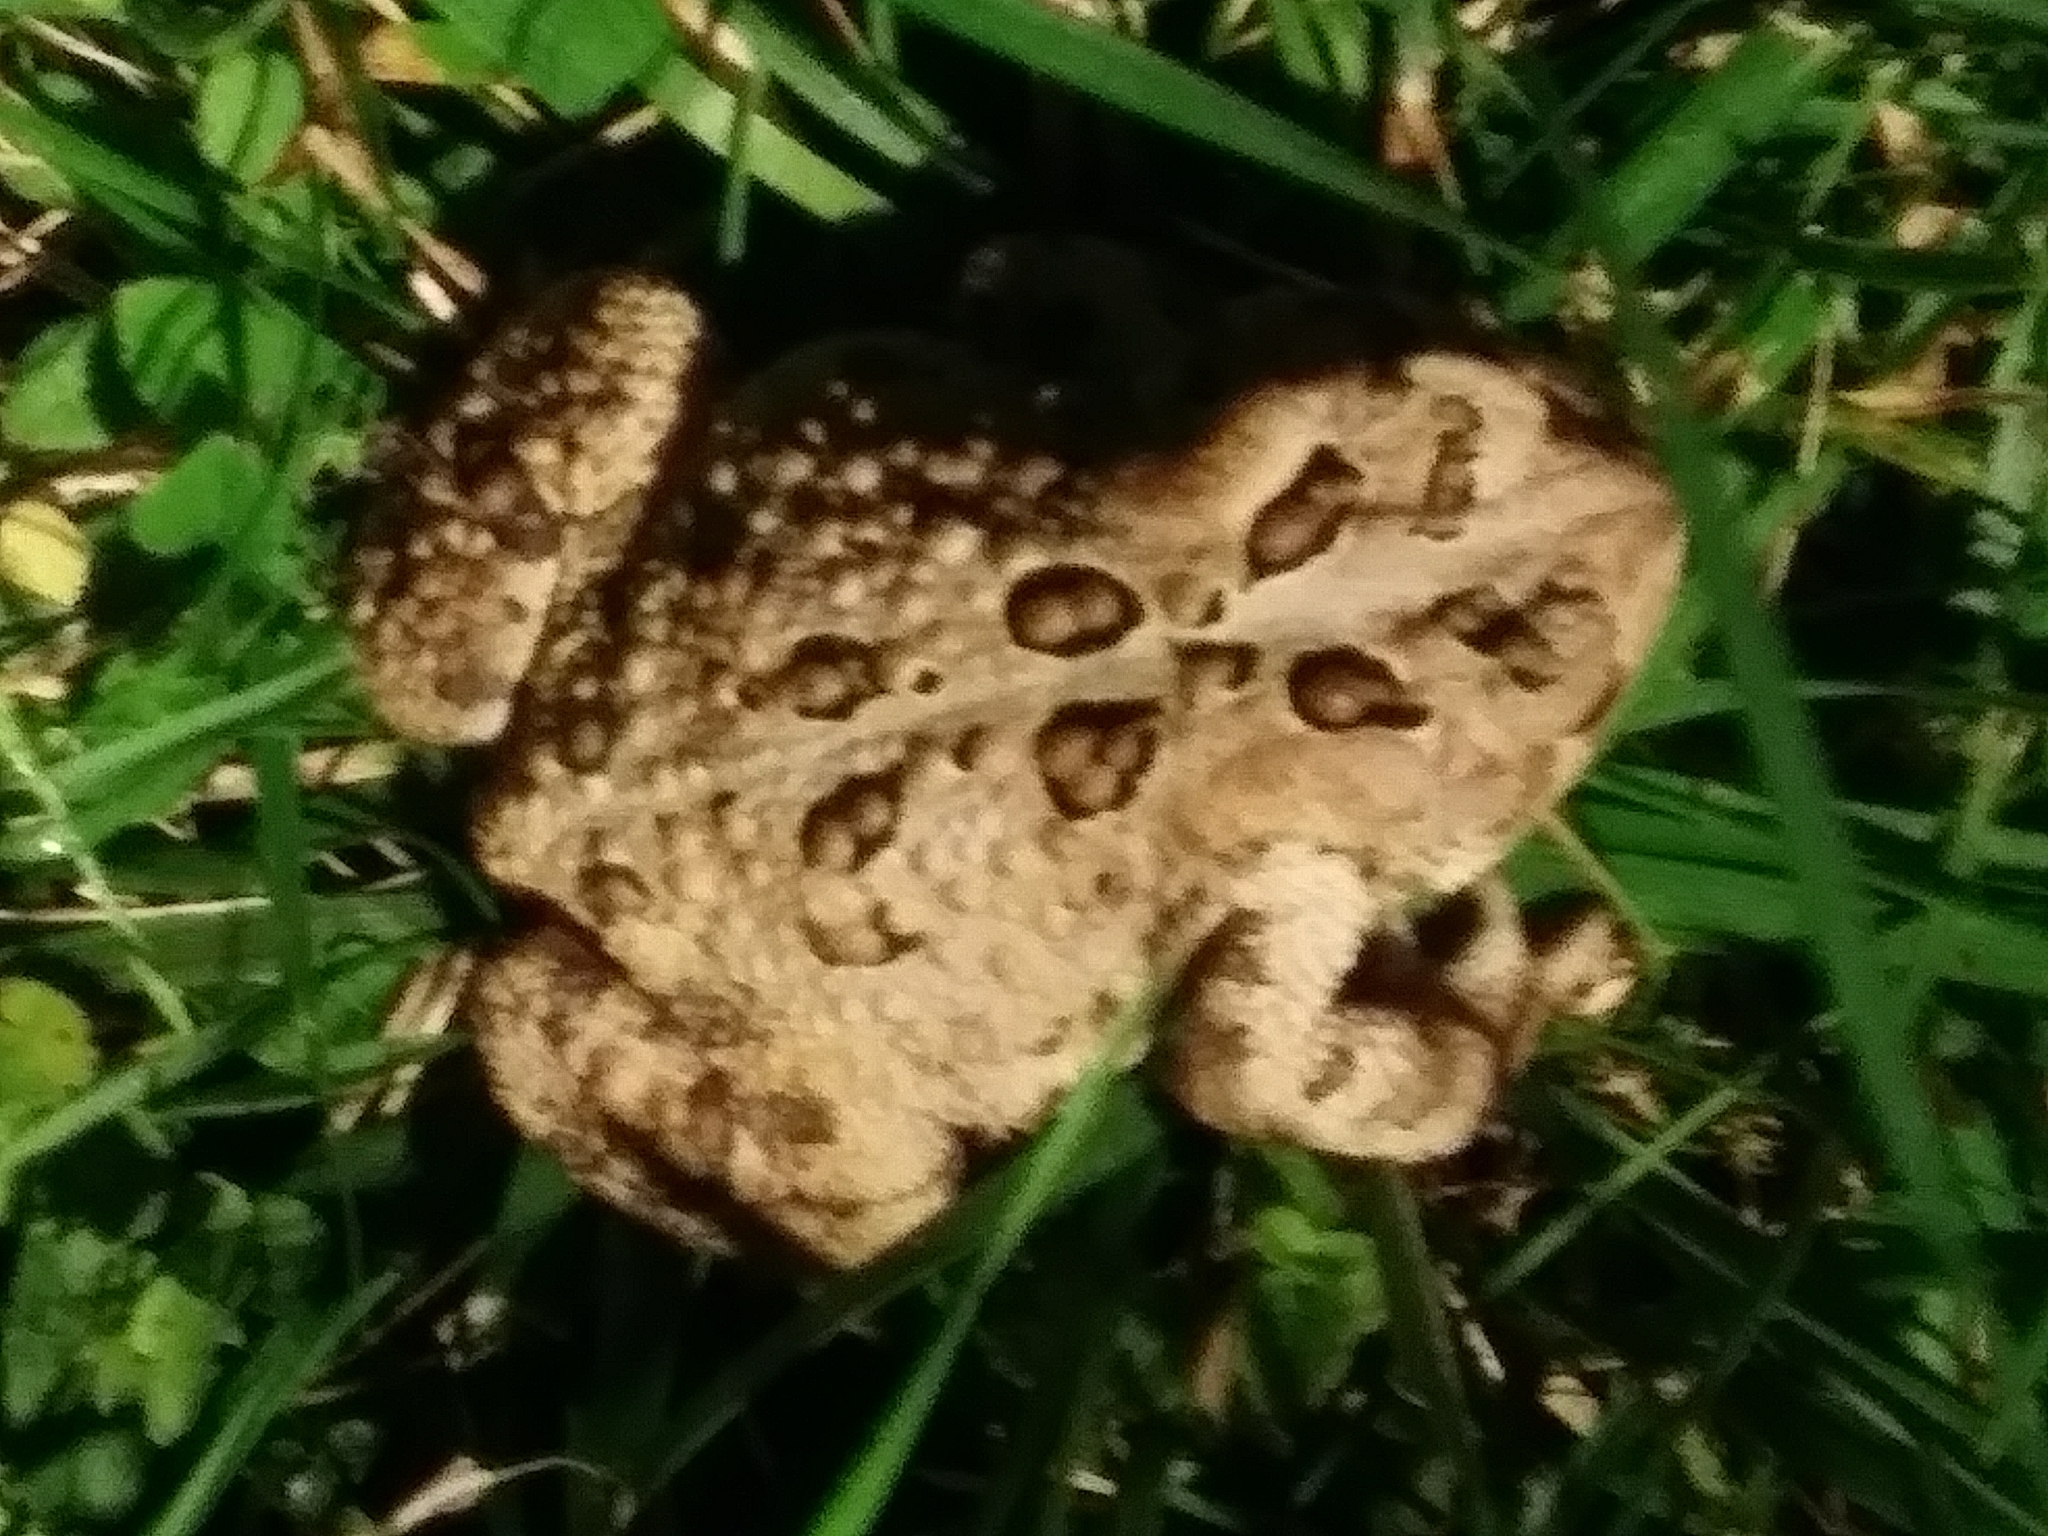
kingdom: Animalia
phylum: Chordata
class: Amphibia
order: Anura
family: Bufonidae
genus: Anaxyrus
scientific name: Anaxyrus americanus
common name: American toad
